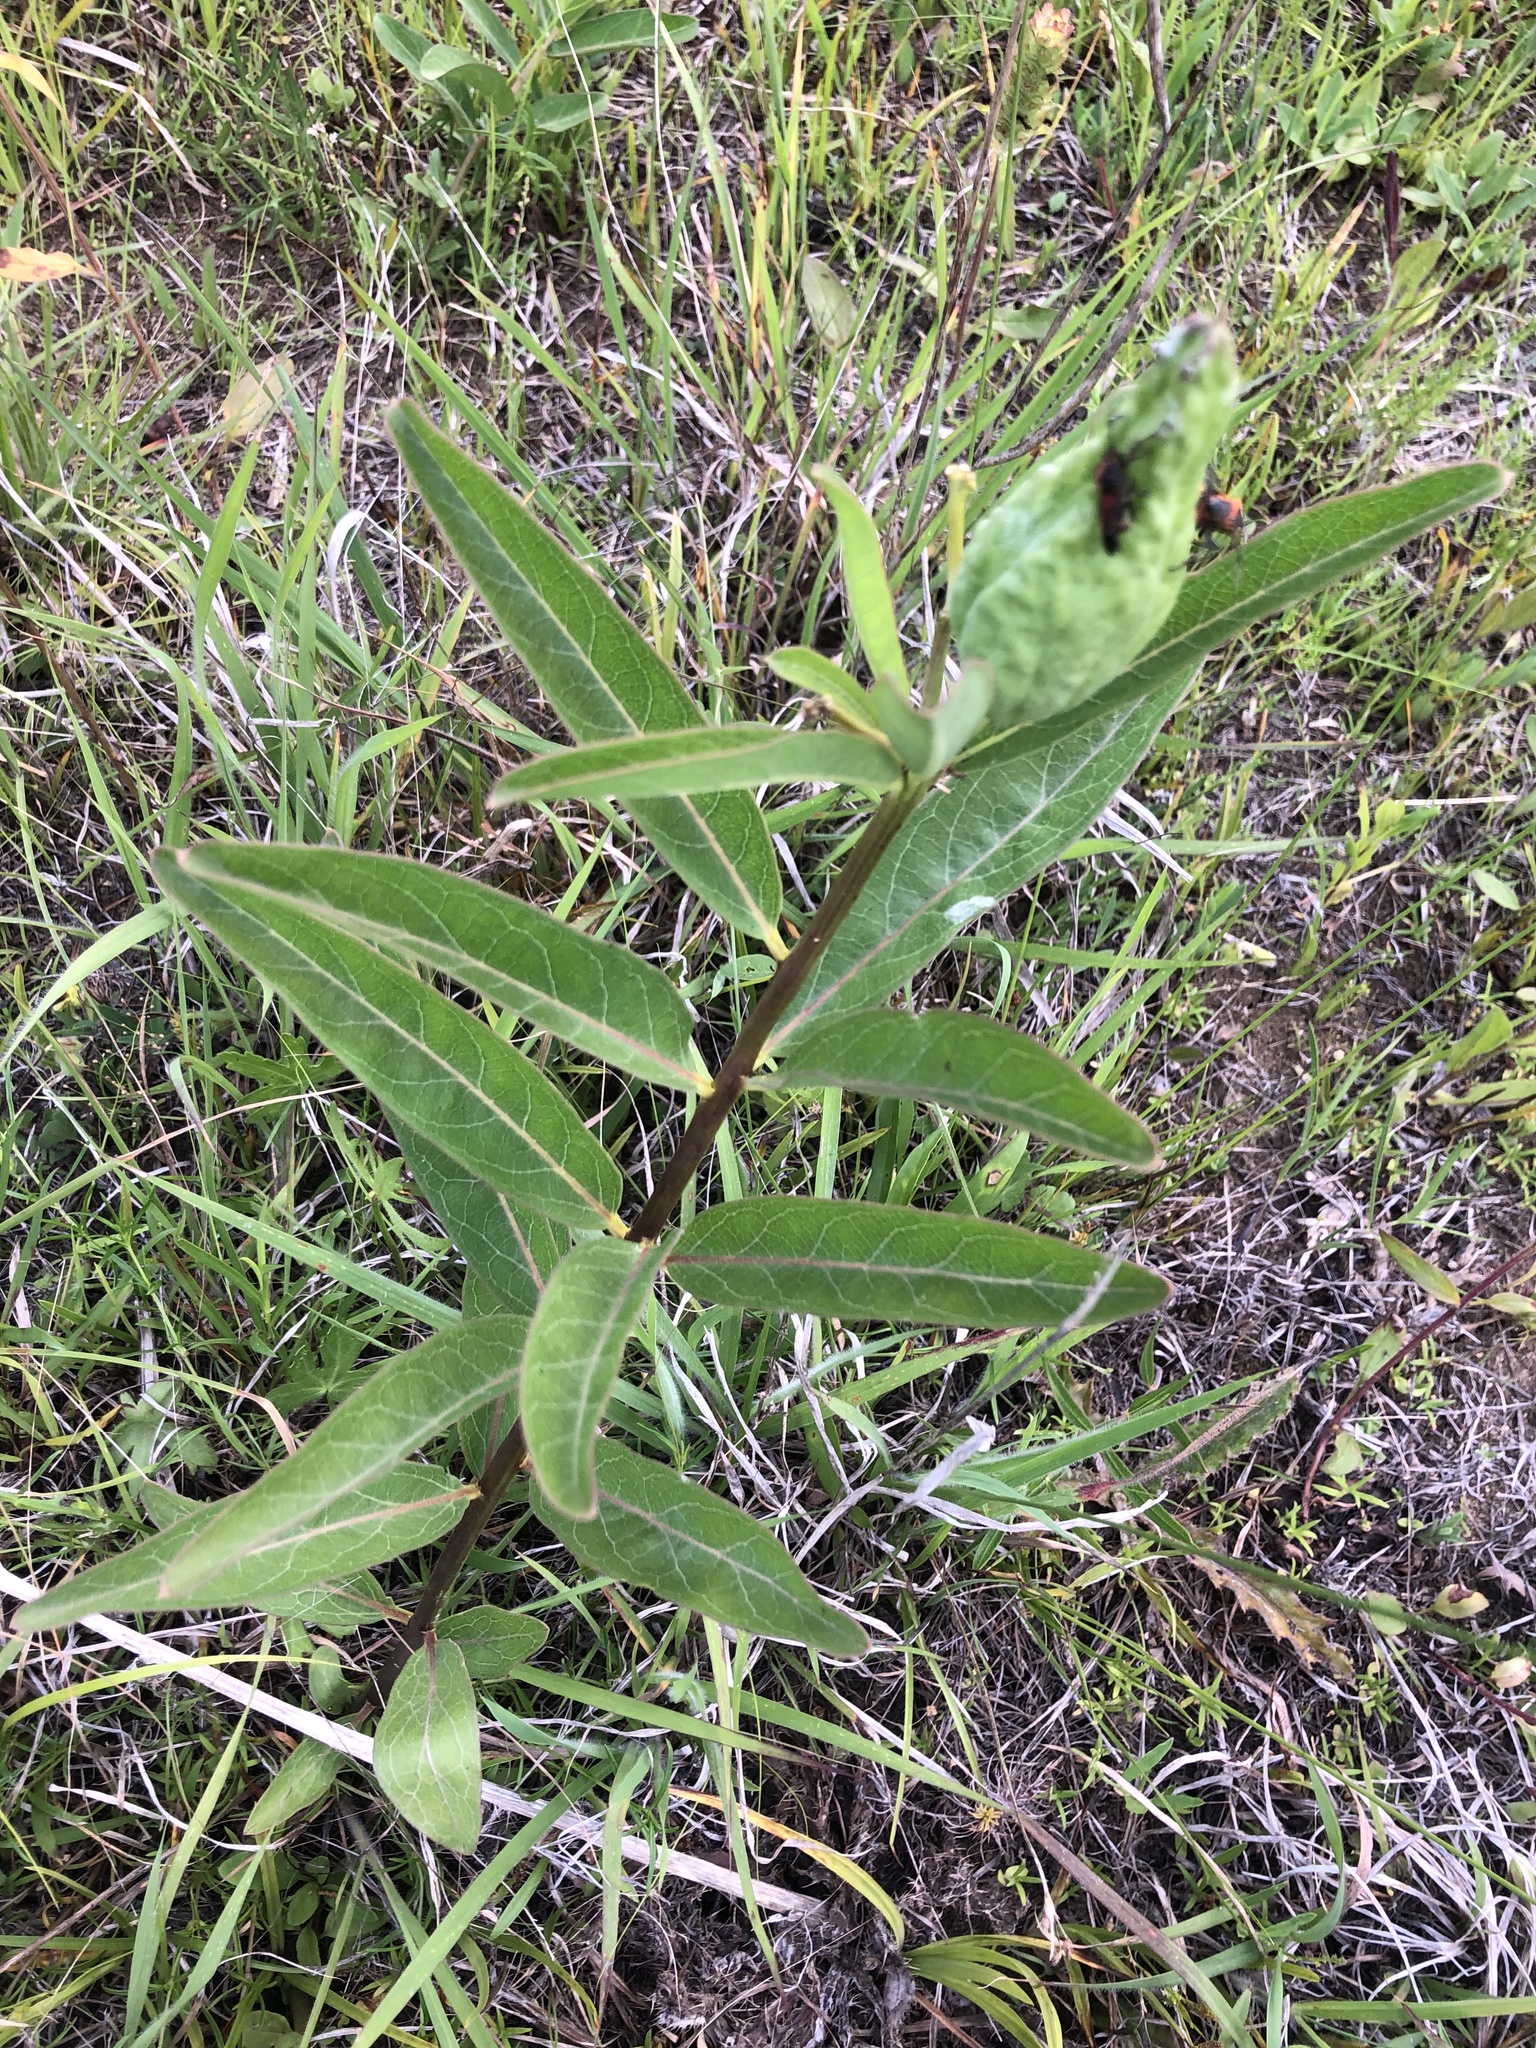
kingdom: Plantae
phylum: Tracheophyta
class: Magnoliopsida
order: Gentianales
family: Apocynaceae
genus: Asclepias
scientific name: Asclepias viridis
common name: Antelope-horns
